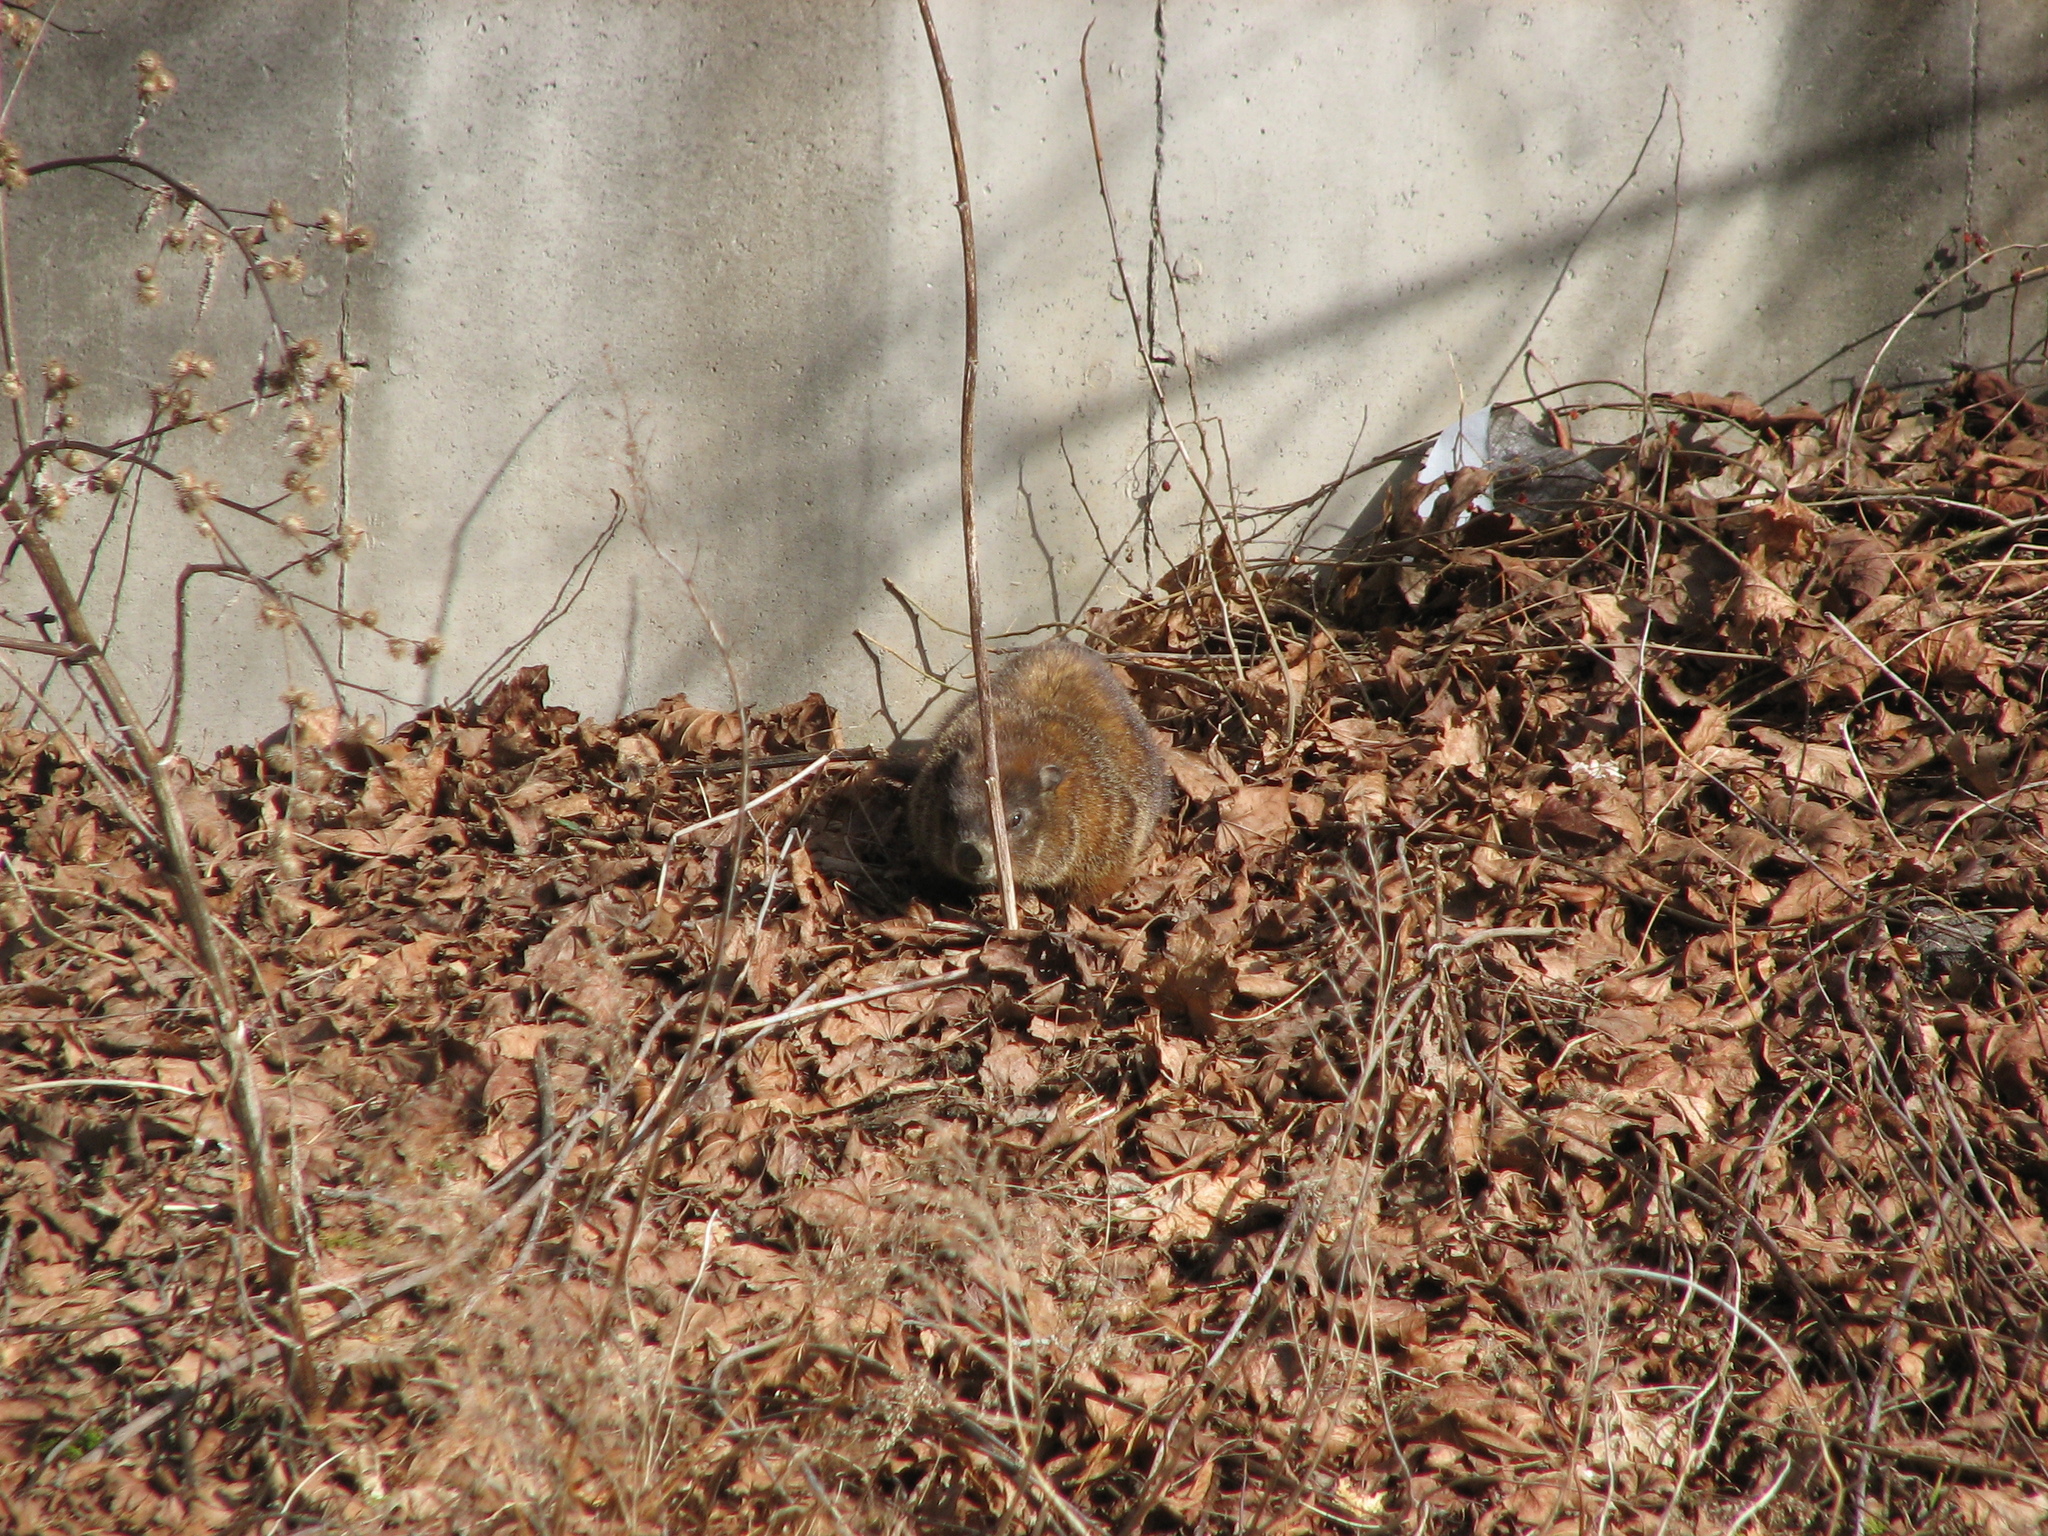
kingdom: Animalia
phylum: Chordata
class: Mammalia
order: Rodentia
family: Sciuridae
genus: Marmota
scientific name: Marmota monax
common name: Groundhog
